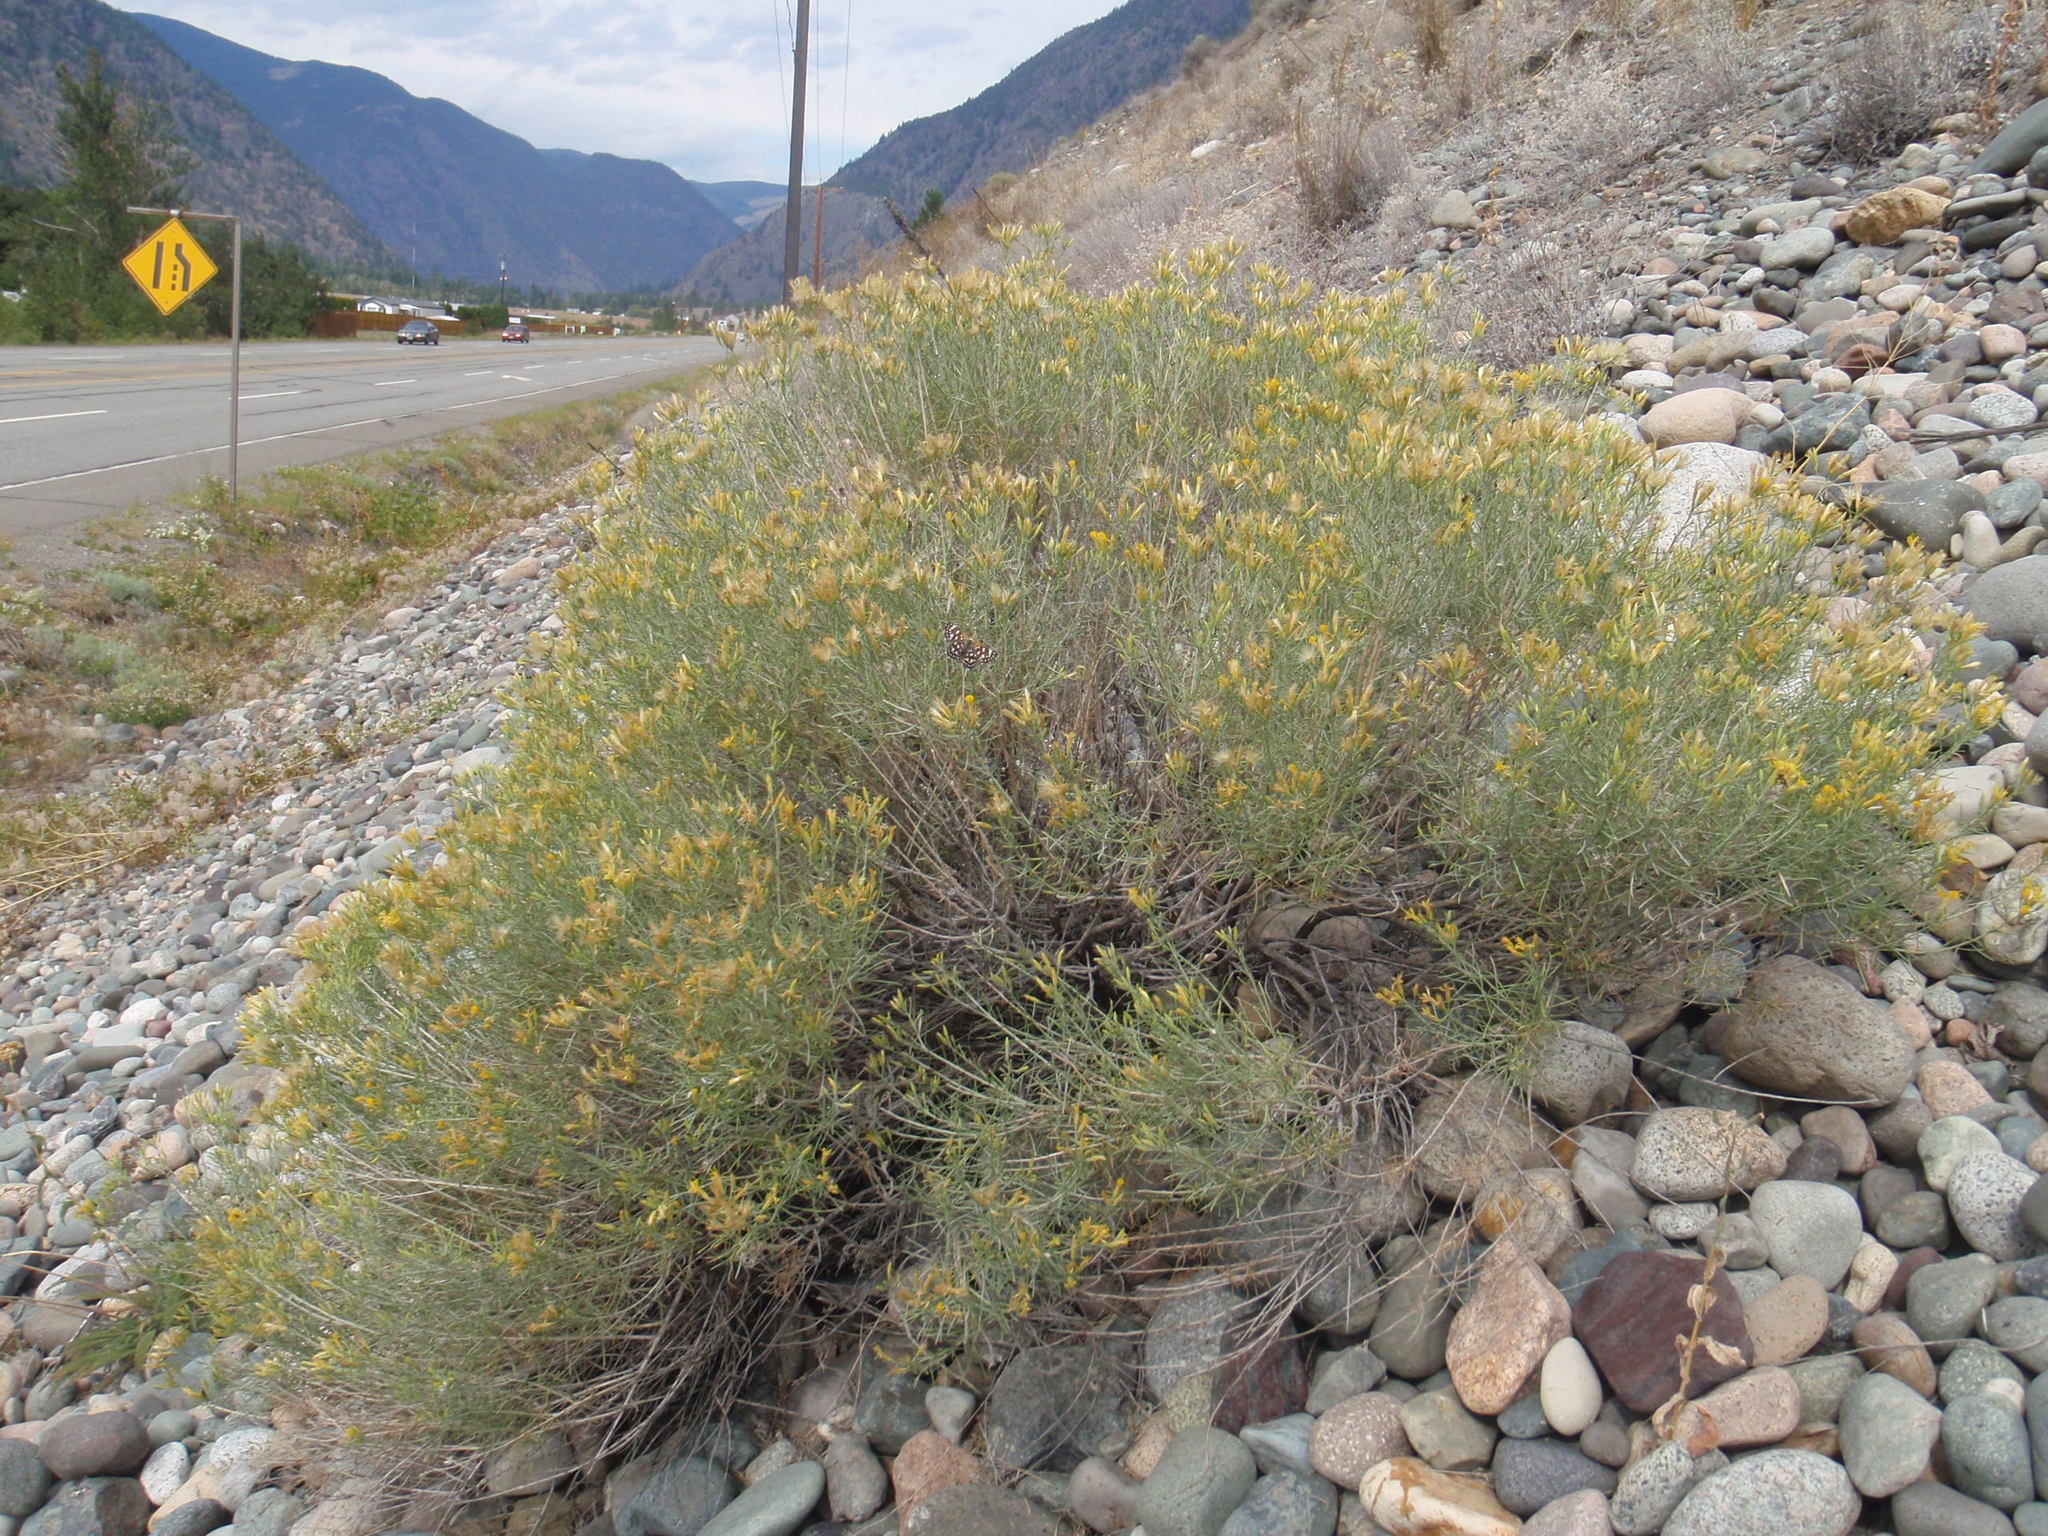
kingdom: Plantae
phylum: Tracheophyta
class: Magnoliopsida
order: Asterales
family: Asteraceae
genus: Ericameria
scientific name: Ericameria nauseosa
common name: Rubber rabbitbrush
